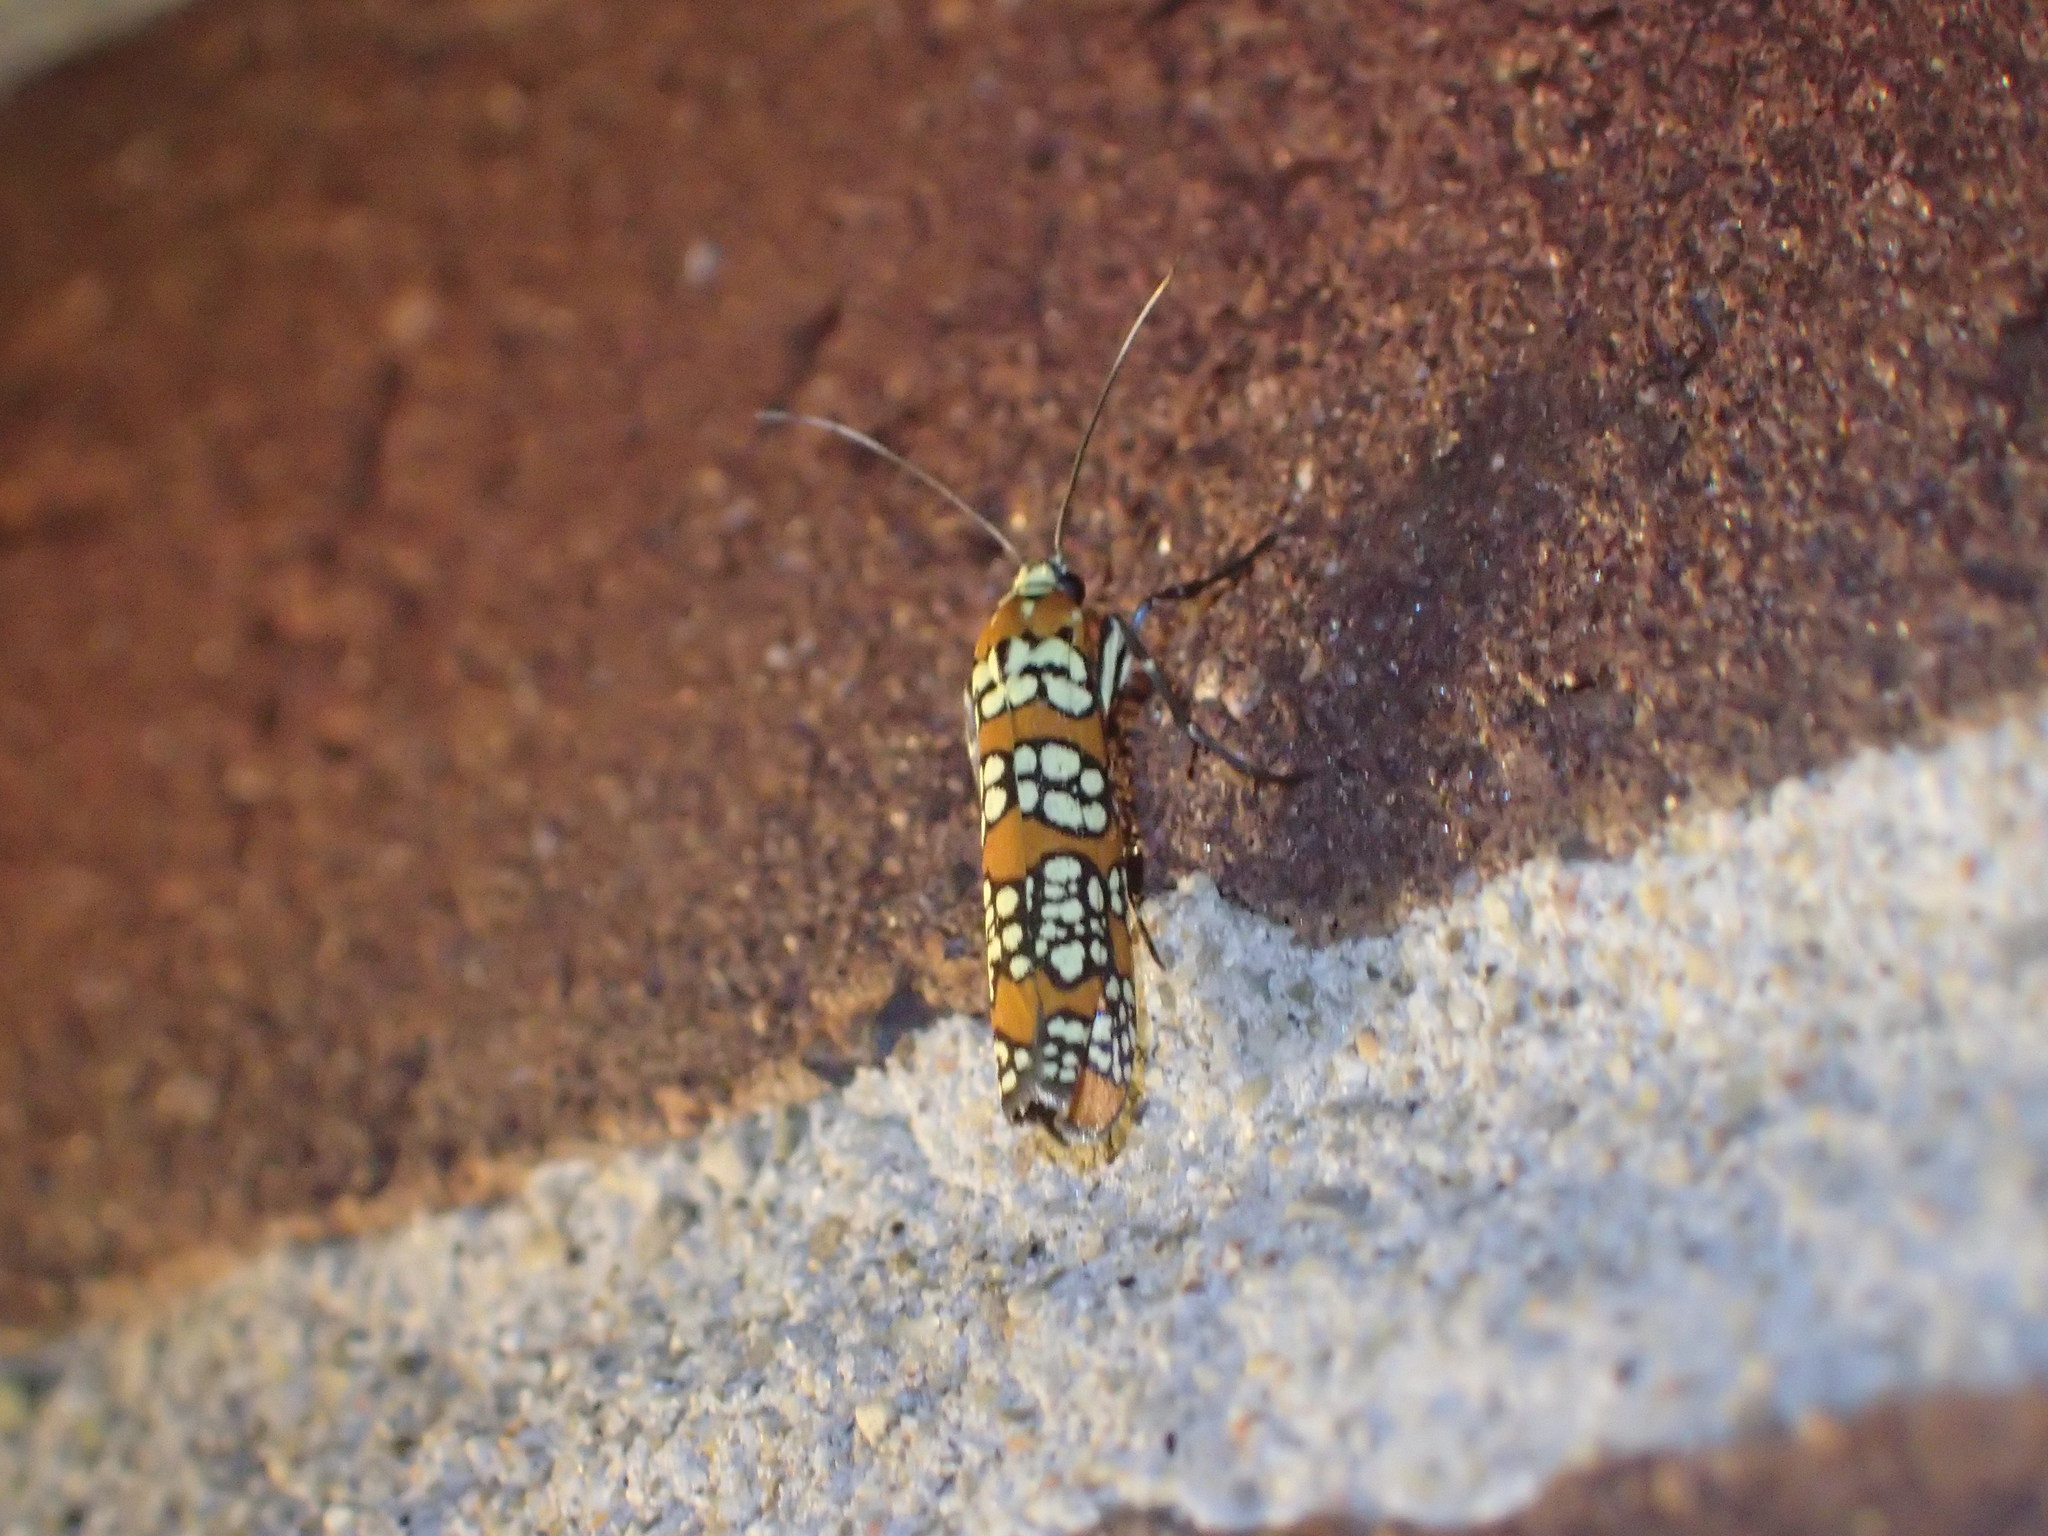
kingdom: Animalia
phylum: Arthropoda
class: Insecta
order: Lepidoptera
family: Attevidae
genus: Atteva
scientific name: Atteva punctella
